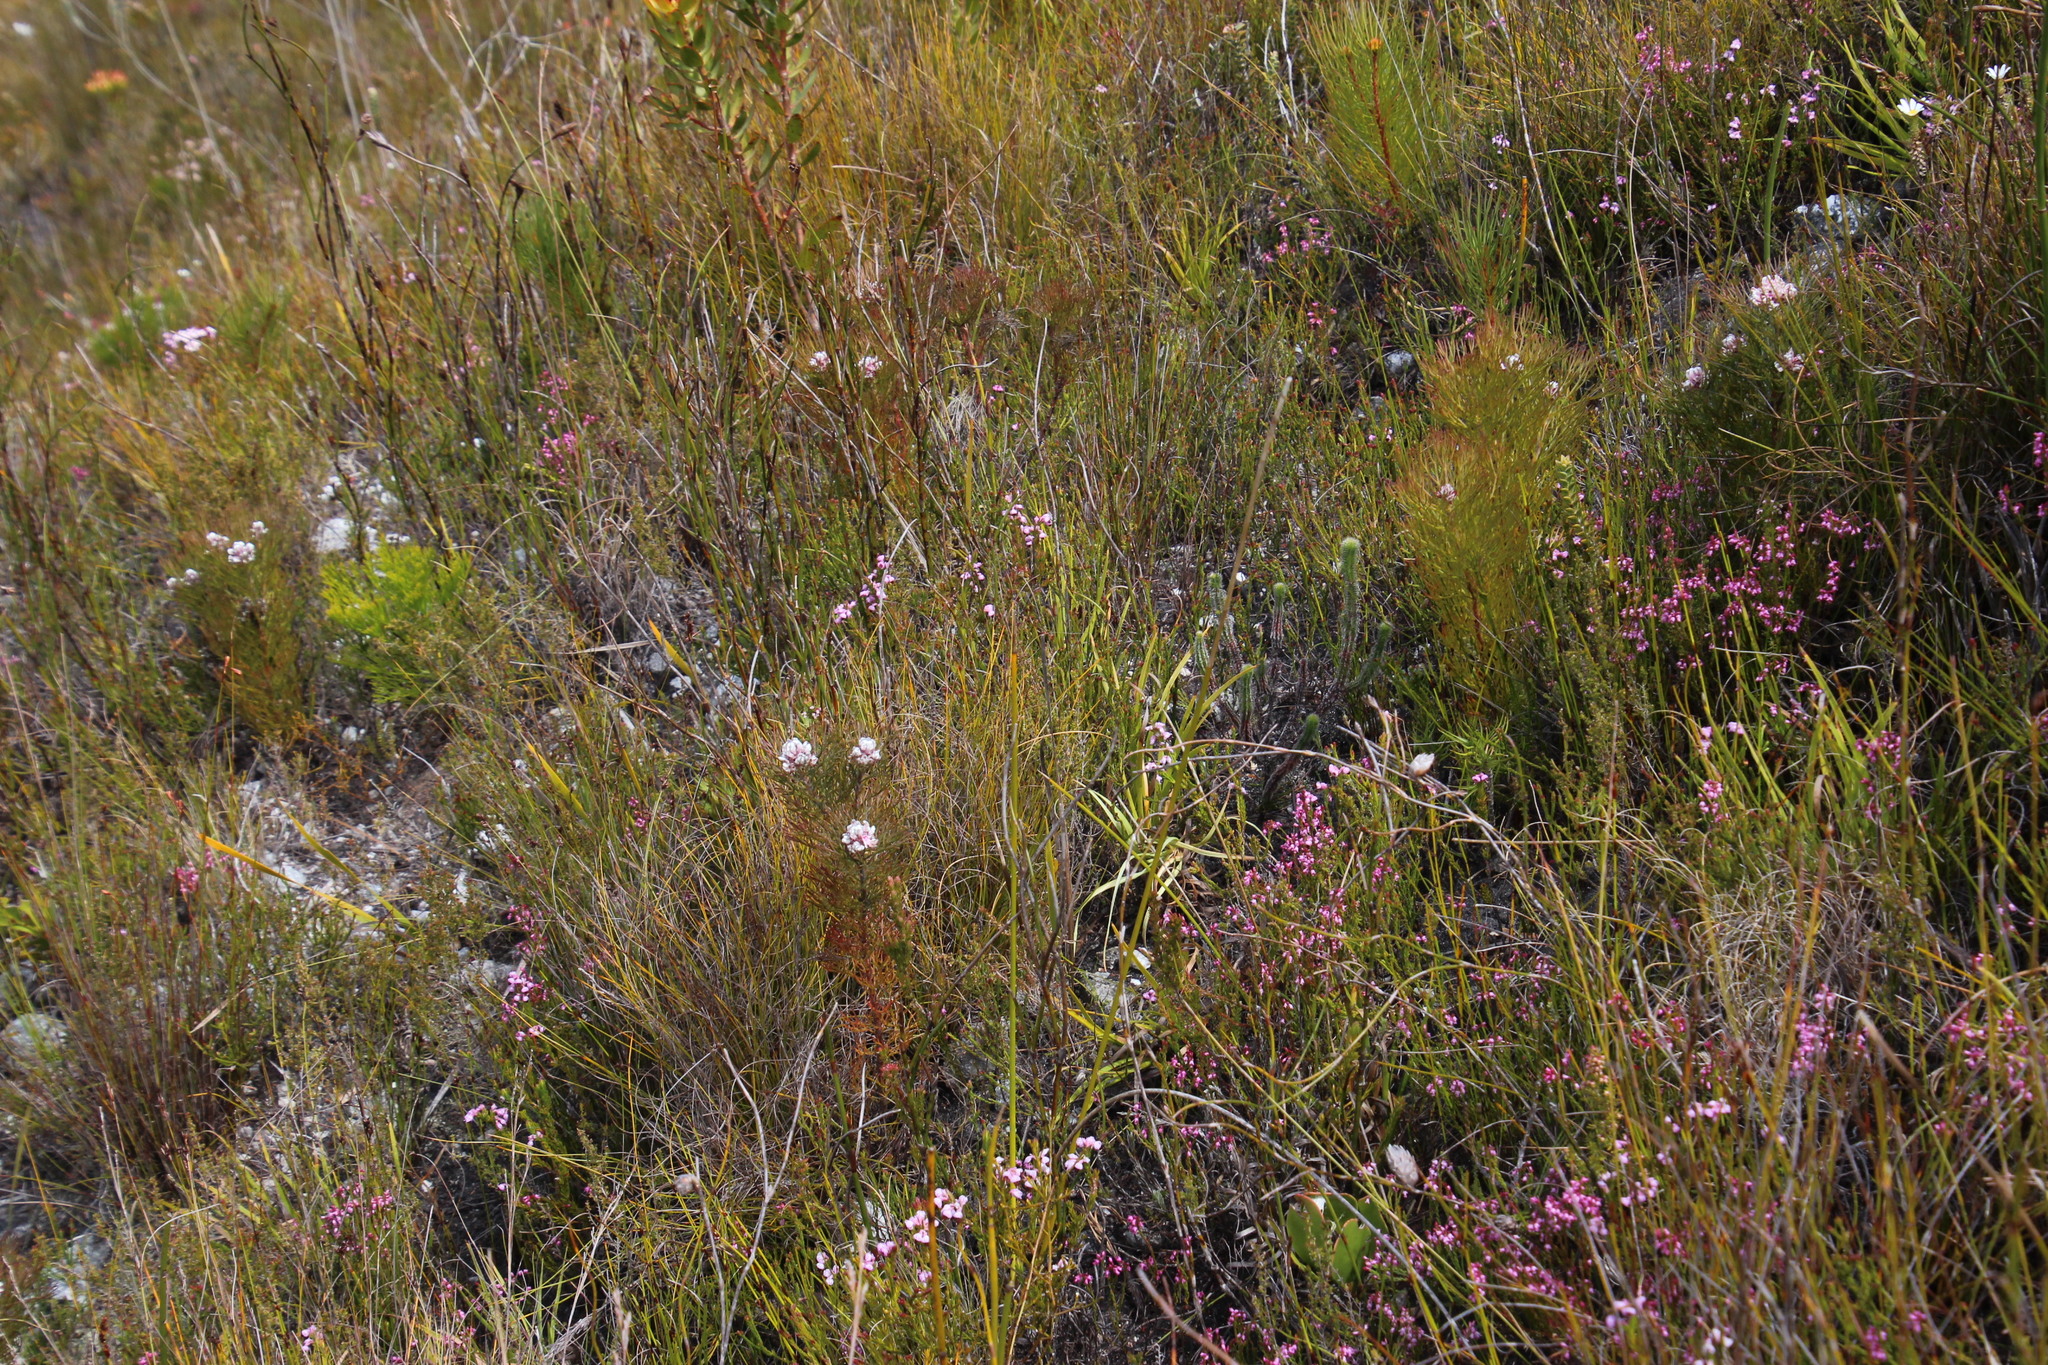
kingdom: Plantae
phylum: Tracheophyta
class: Magnoliopsida
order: Proteales
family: Proteaceae
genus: Serruria
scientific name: Serruria ascendens
